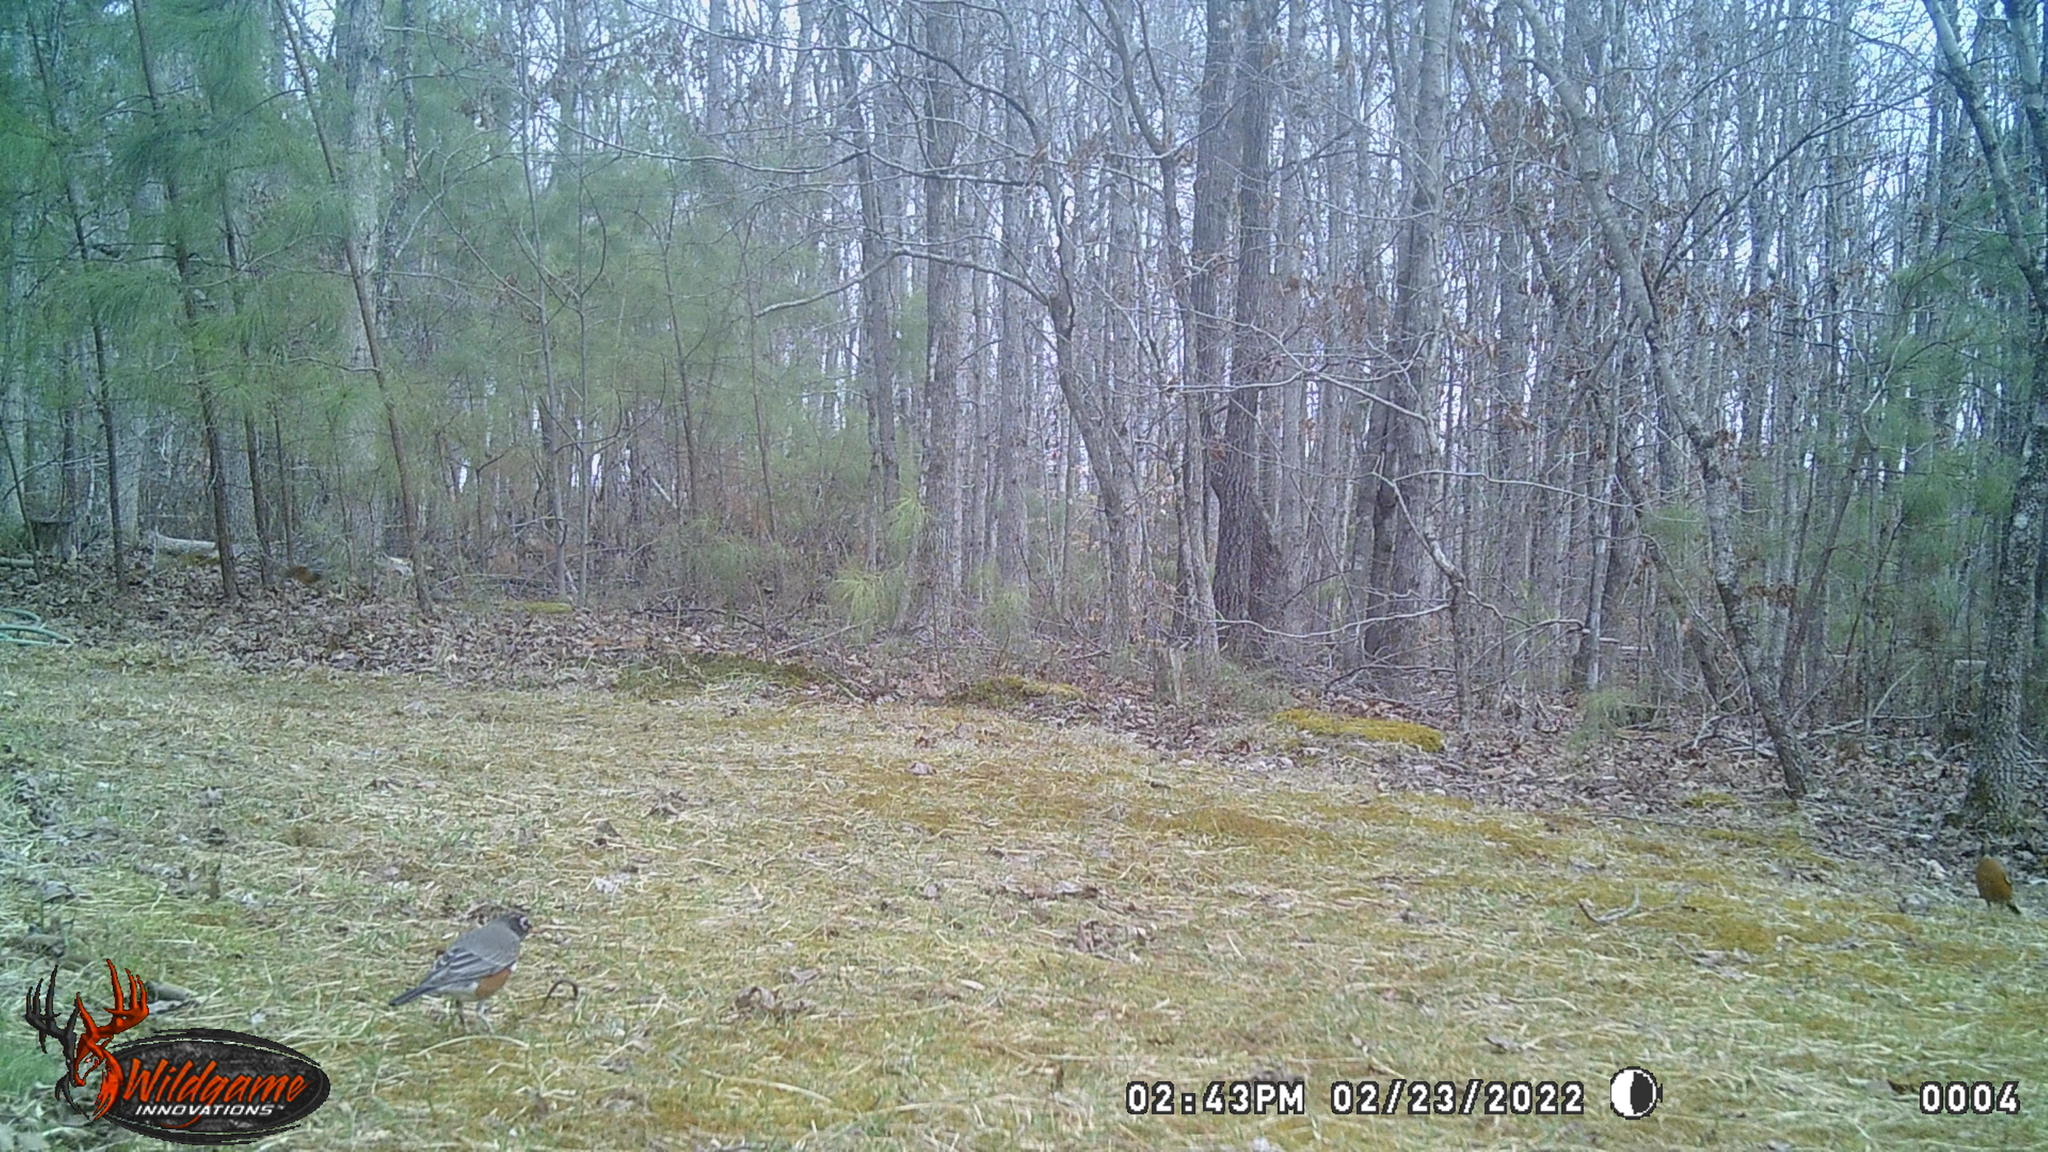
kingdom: Animalia
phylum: Chordata
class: Aves
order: Passeriformes
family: Turdidae
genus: Turdus
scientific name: Turdus migratorius
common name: American robin
